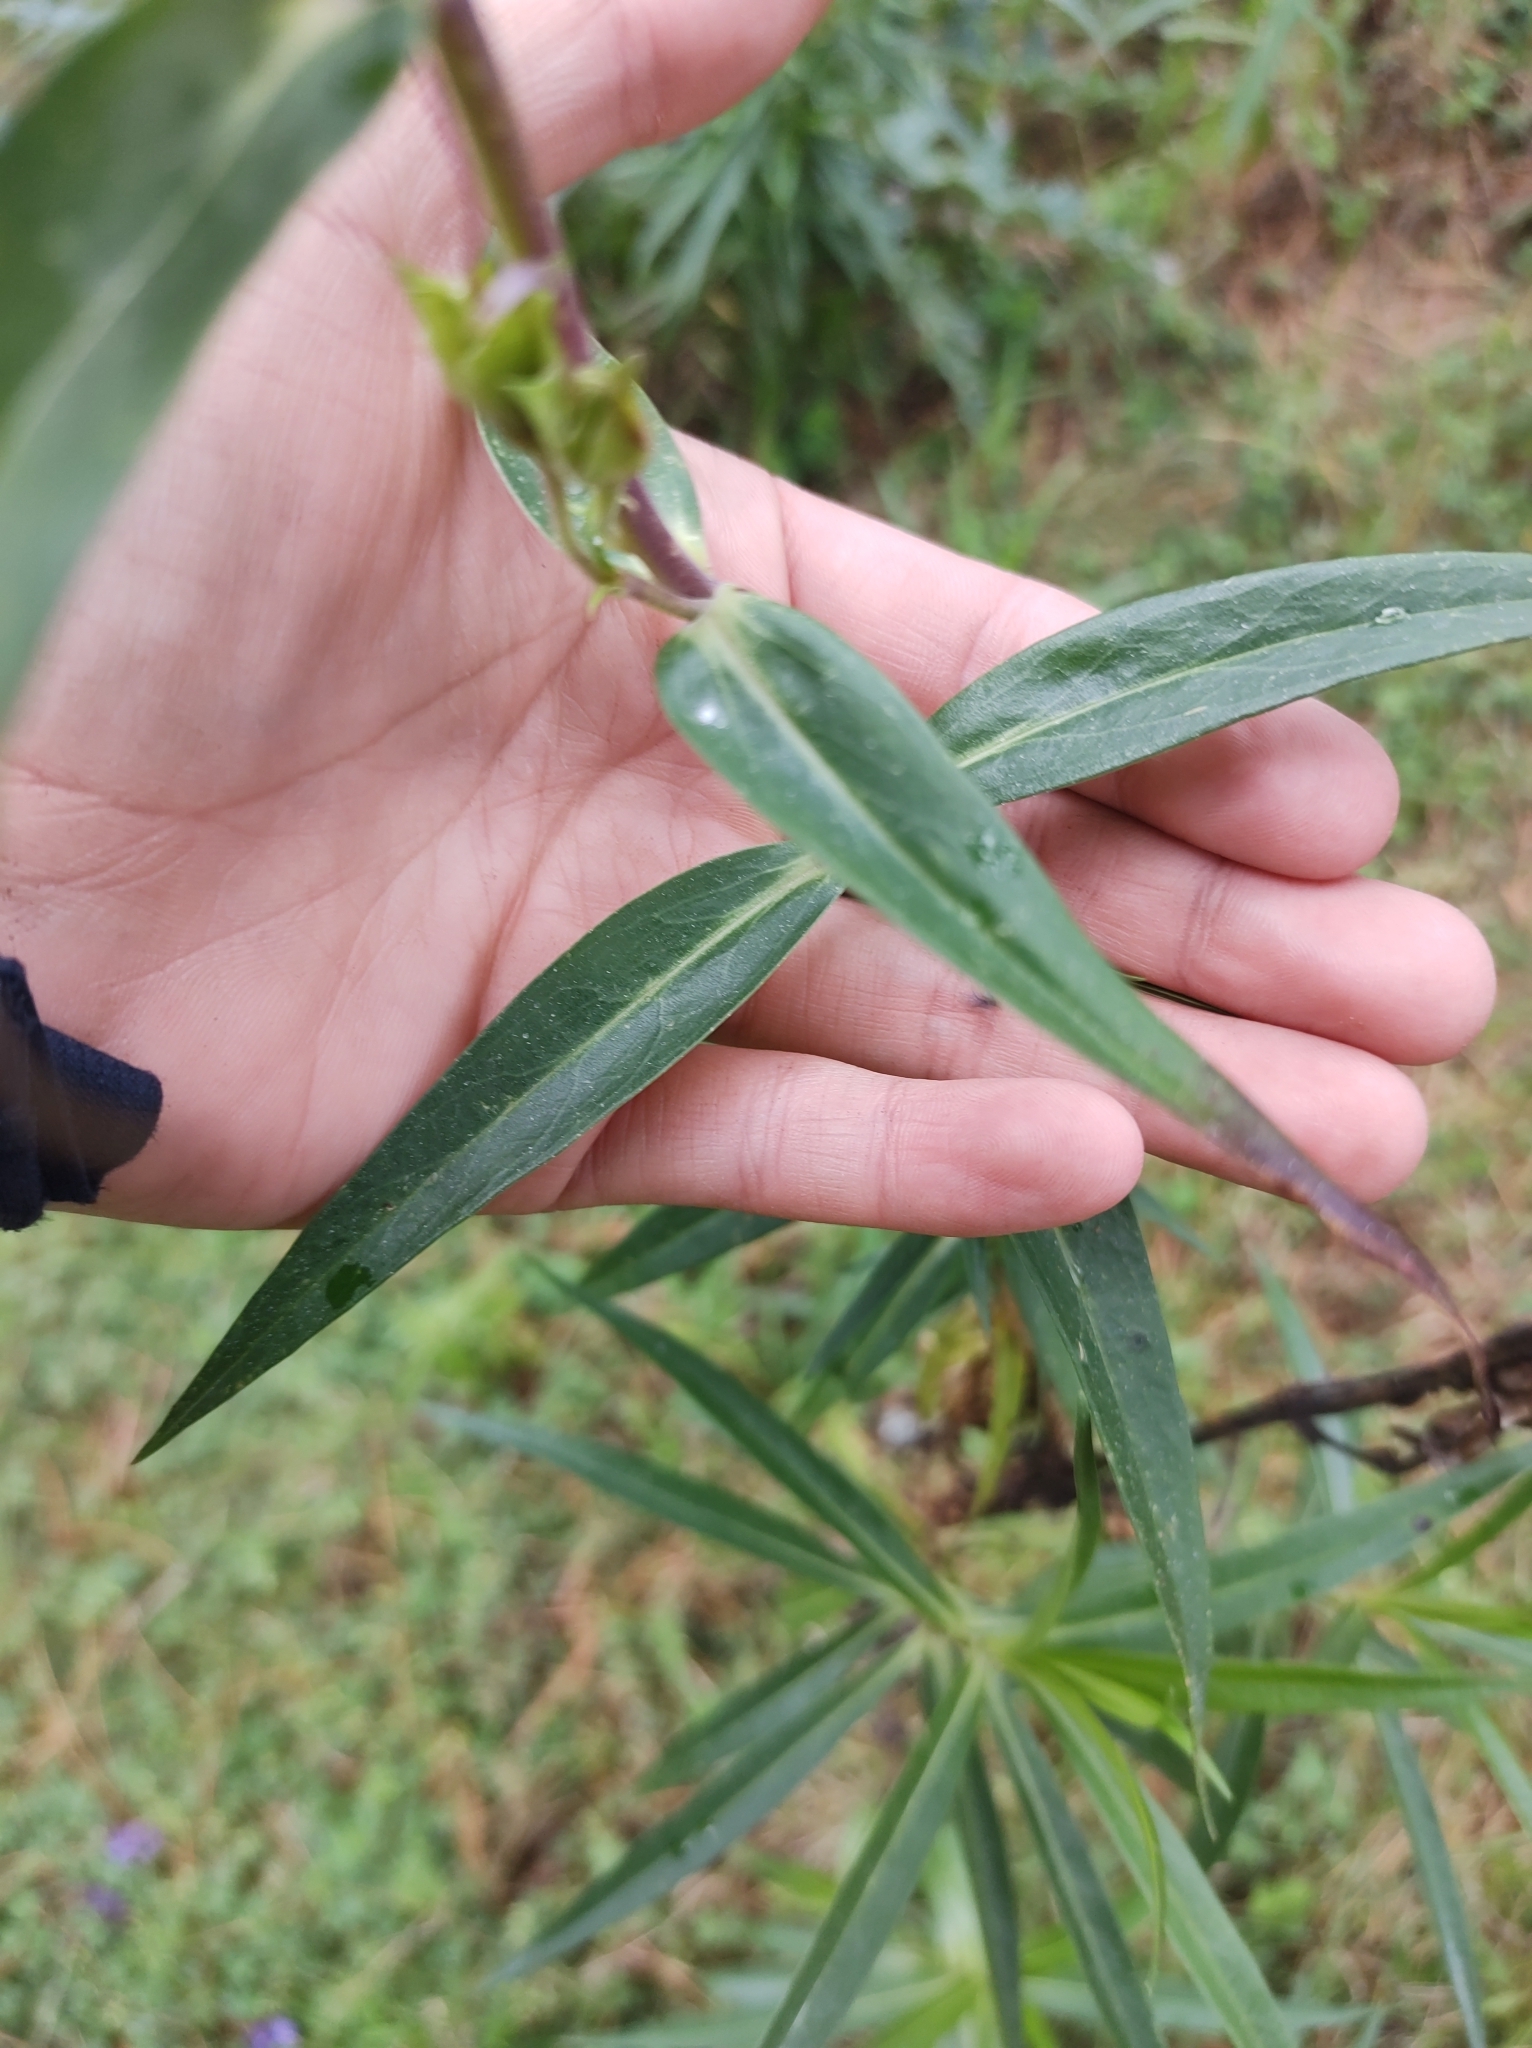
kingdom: Plantae
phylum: Tracheophyta
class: Magnoliopsida
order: Lamiales
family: Plantaginaceae
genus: Penstemon
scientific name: Penstemon gentianoides
